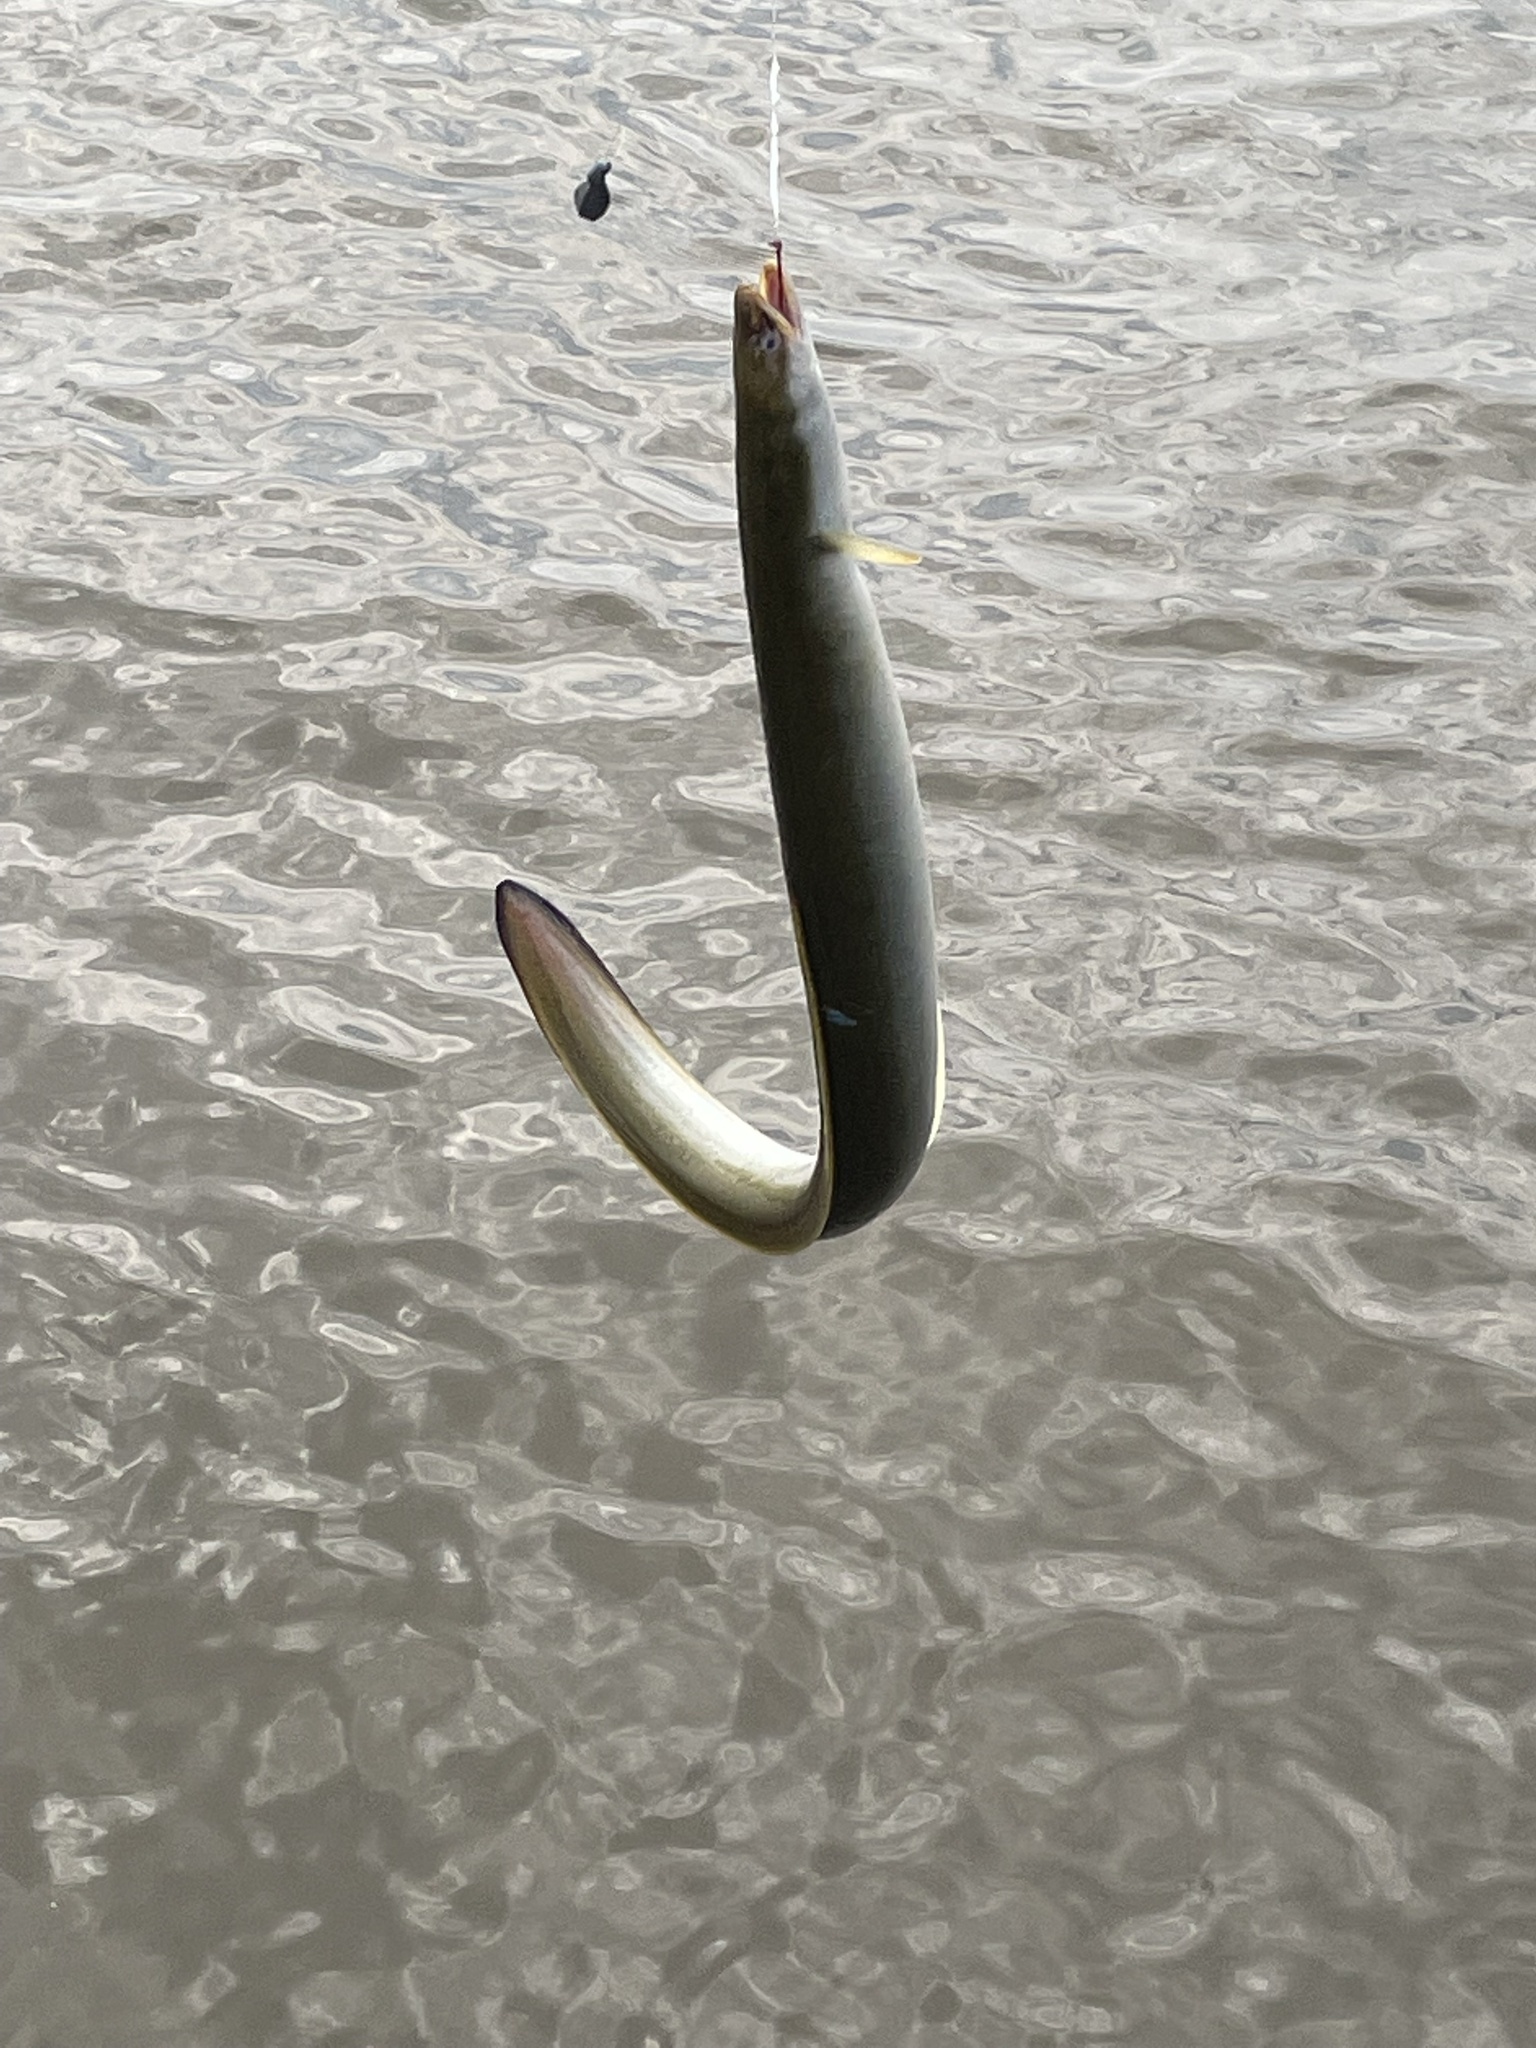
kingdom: Animalia
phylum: Chordata
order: Anguilliformes
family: Anguillidae
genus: Anguilla
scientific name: Anguilla rostrata
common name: American eel
